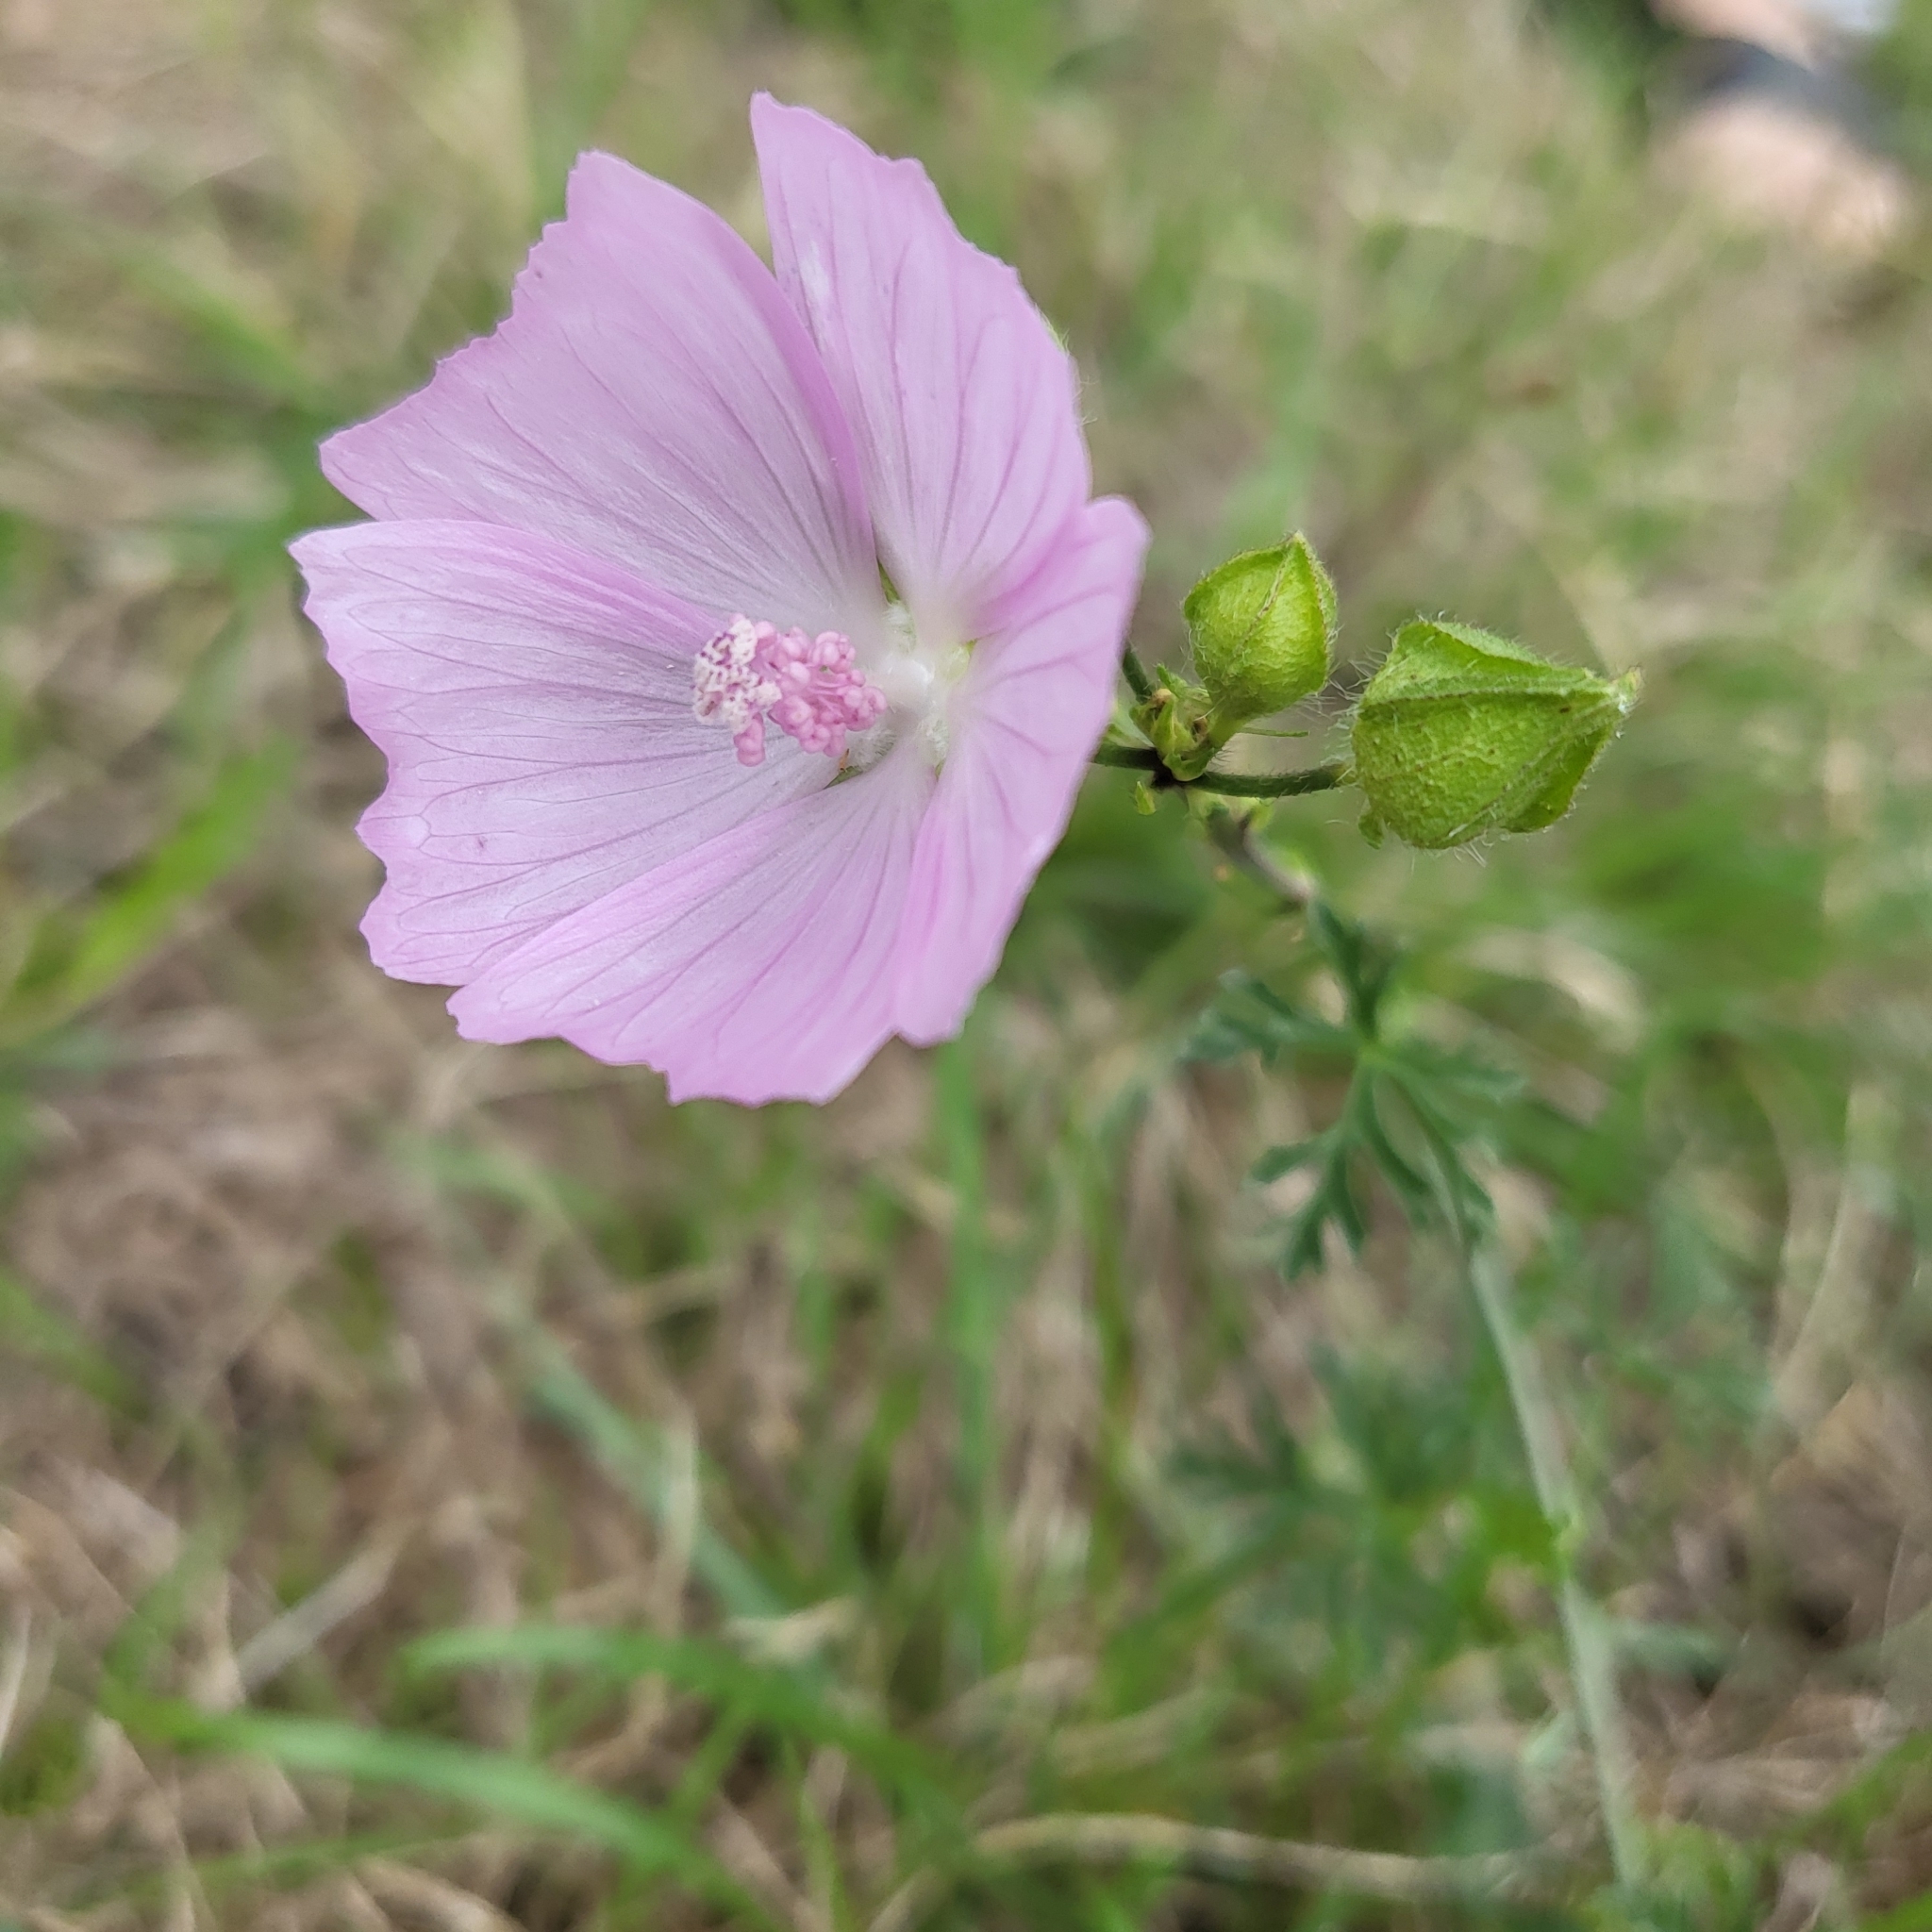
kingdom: Plantae
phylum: Tracheophyta
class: Magnoliopsida
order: Malvales
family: Malvaceae
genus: Malva
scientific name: Malva moschata
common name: Musk mallow
